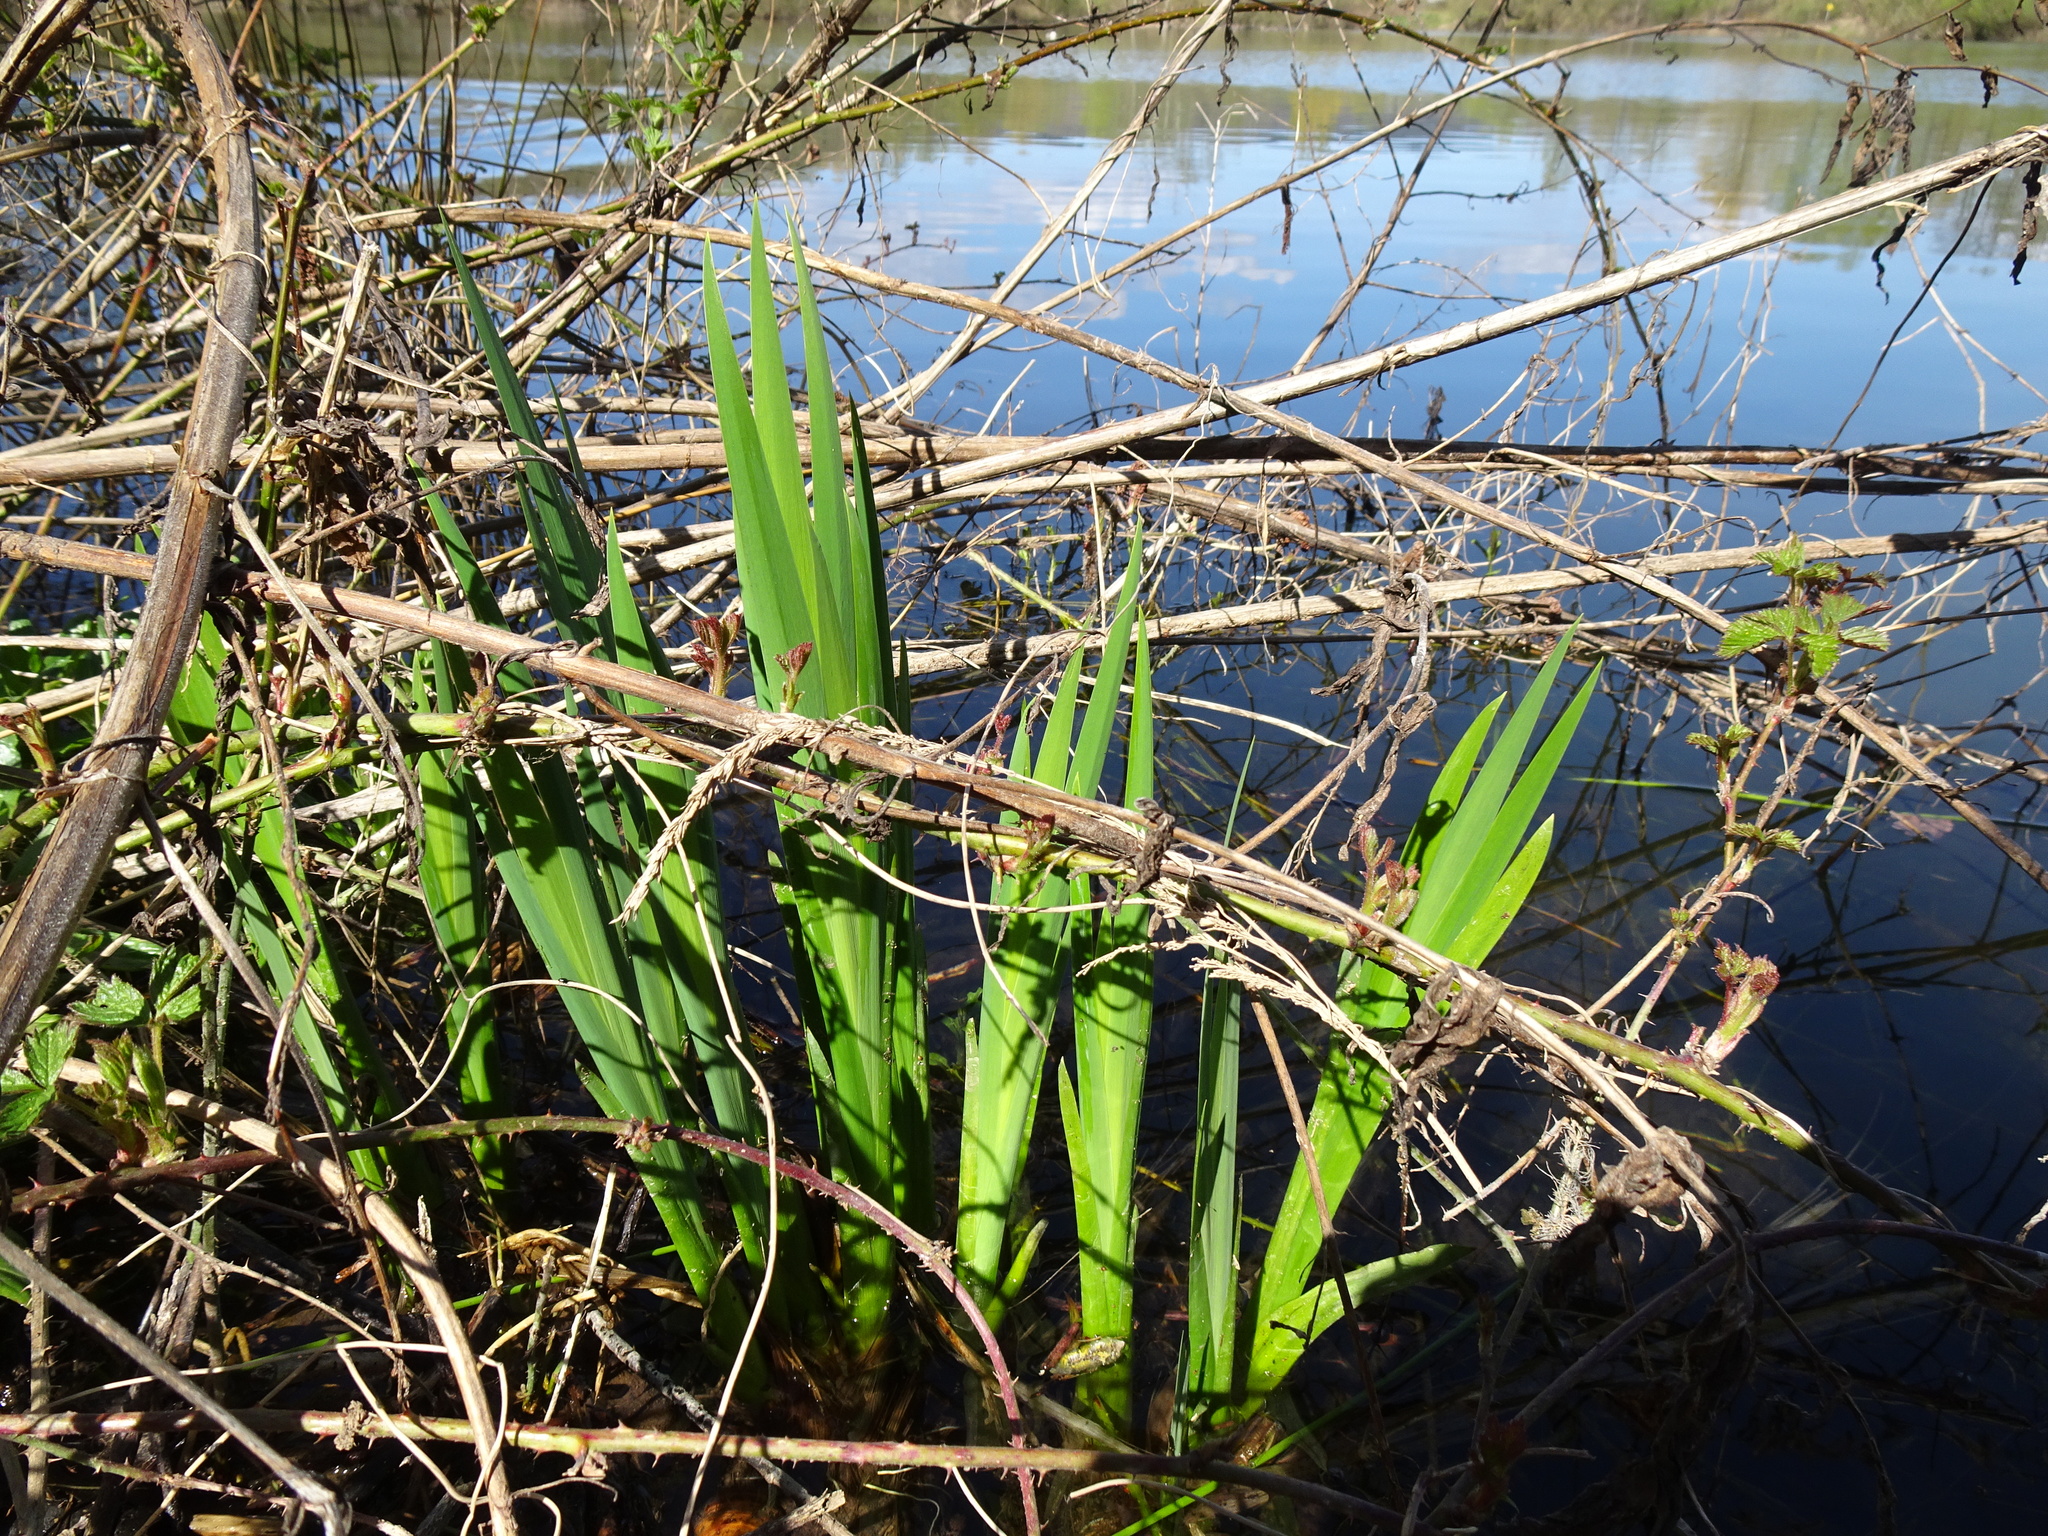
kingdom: Plantae
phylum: Tracheophyta
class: Liliopsida
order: Asparagales
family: Iridaceae
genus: Iris
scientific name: Iris pseudacorus
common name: Yellow flag
